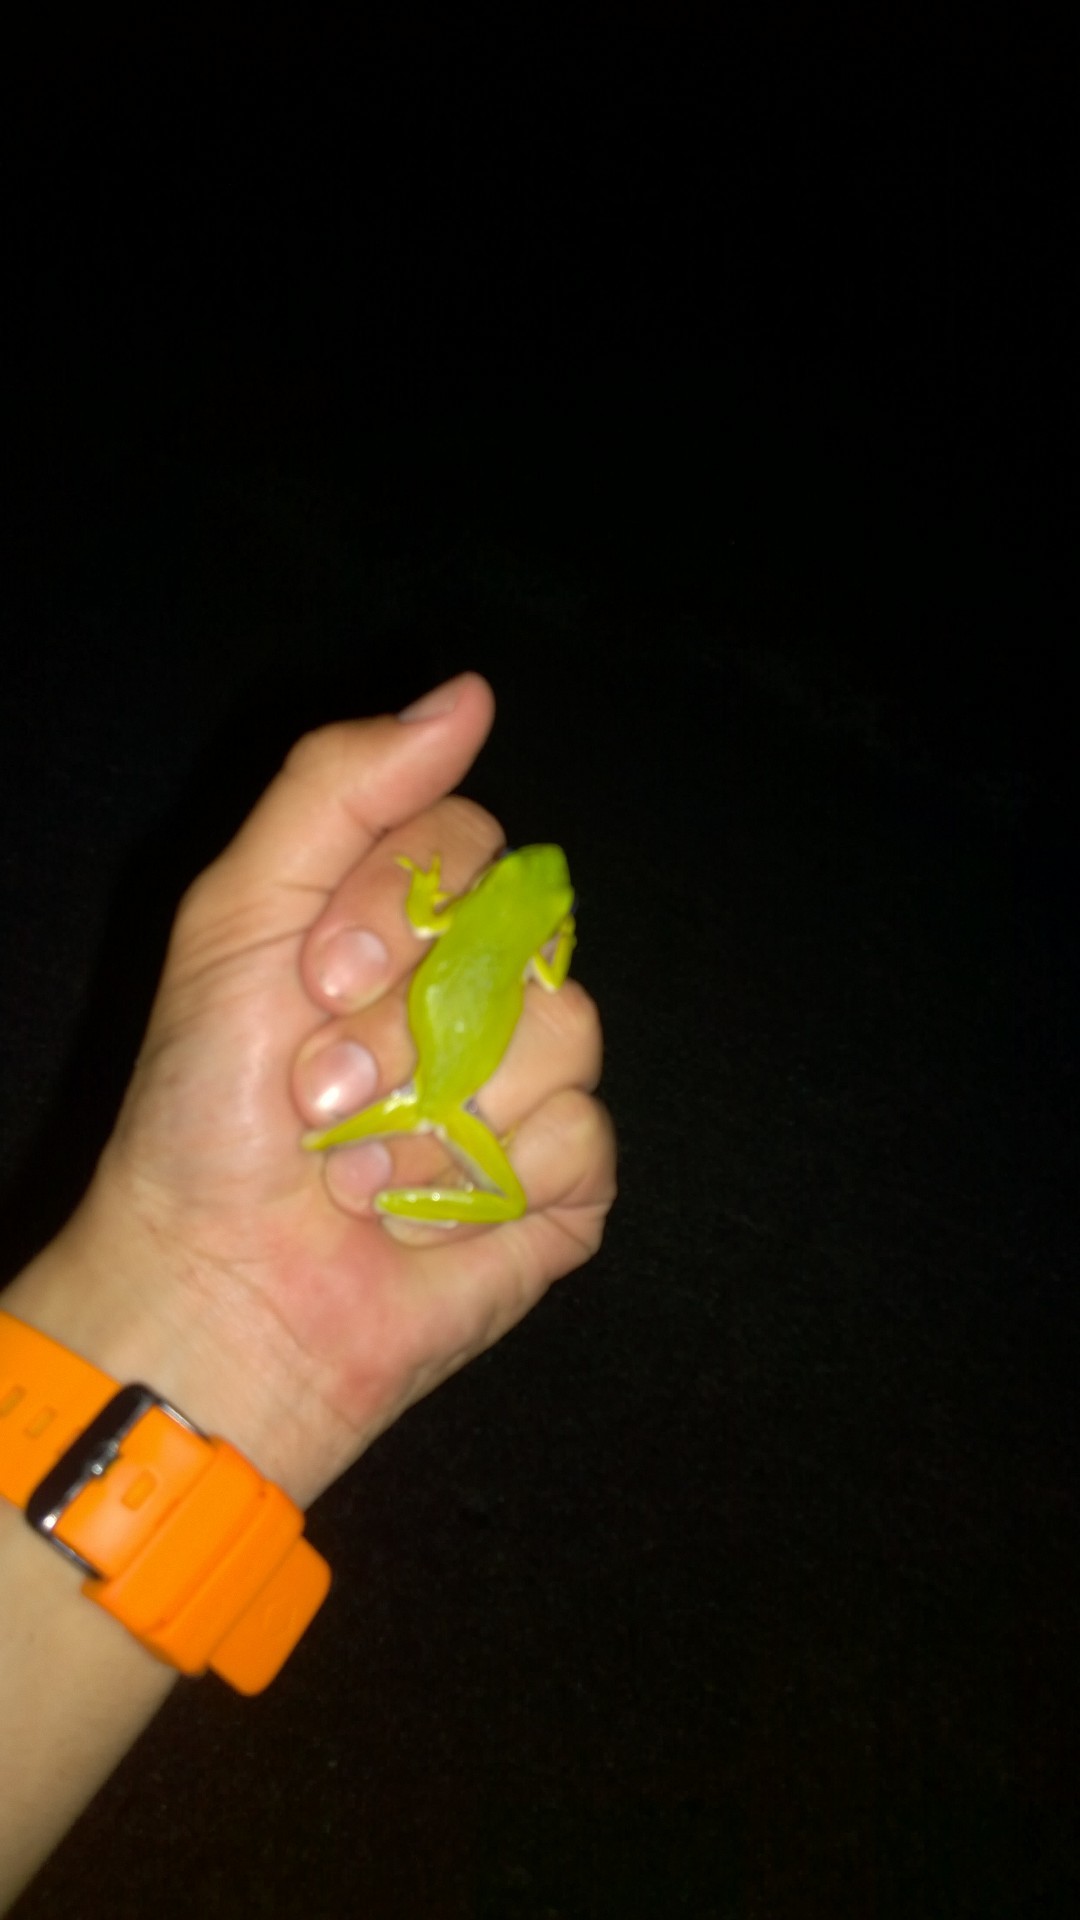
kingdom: Animalia
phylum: Chordata
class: Amphibia
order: Anura
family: Hylidae
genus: Dryophytes
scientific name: Dryophytes cinereus
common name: Green treefrog
